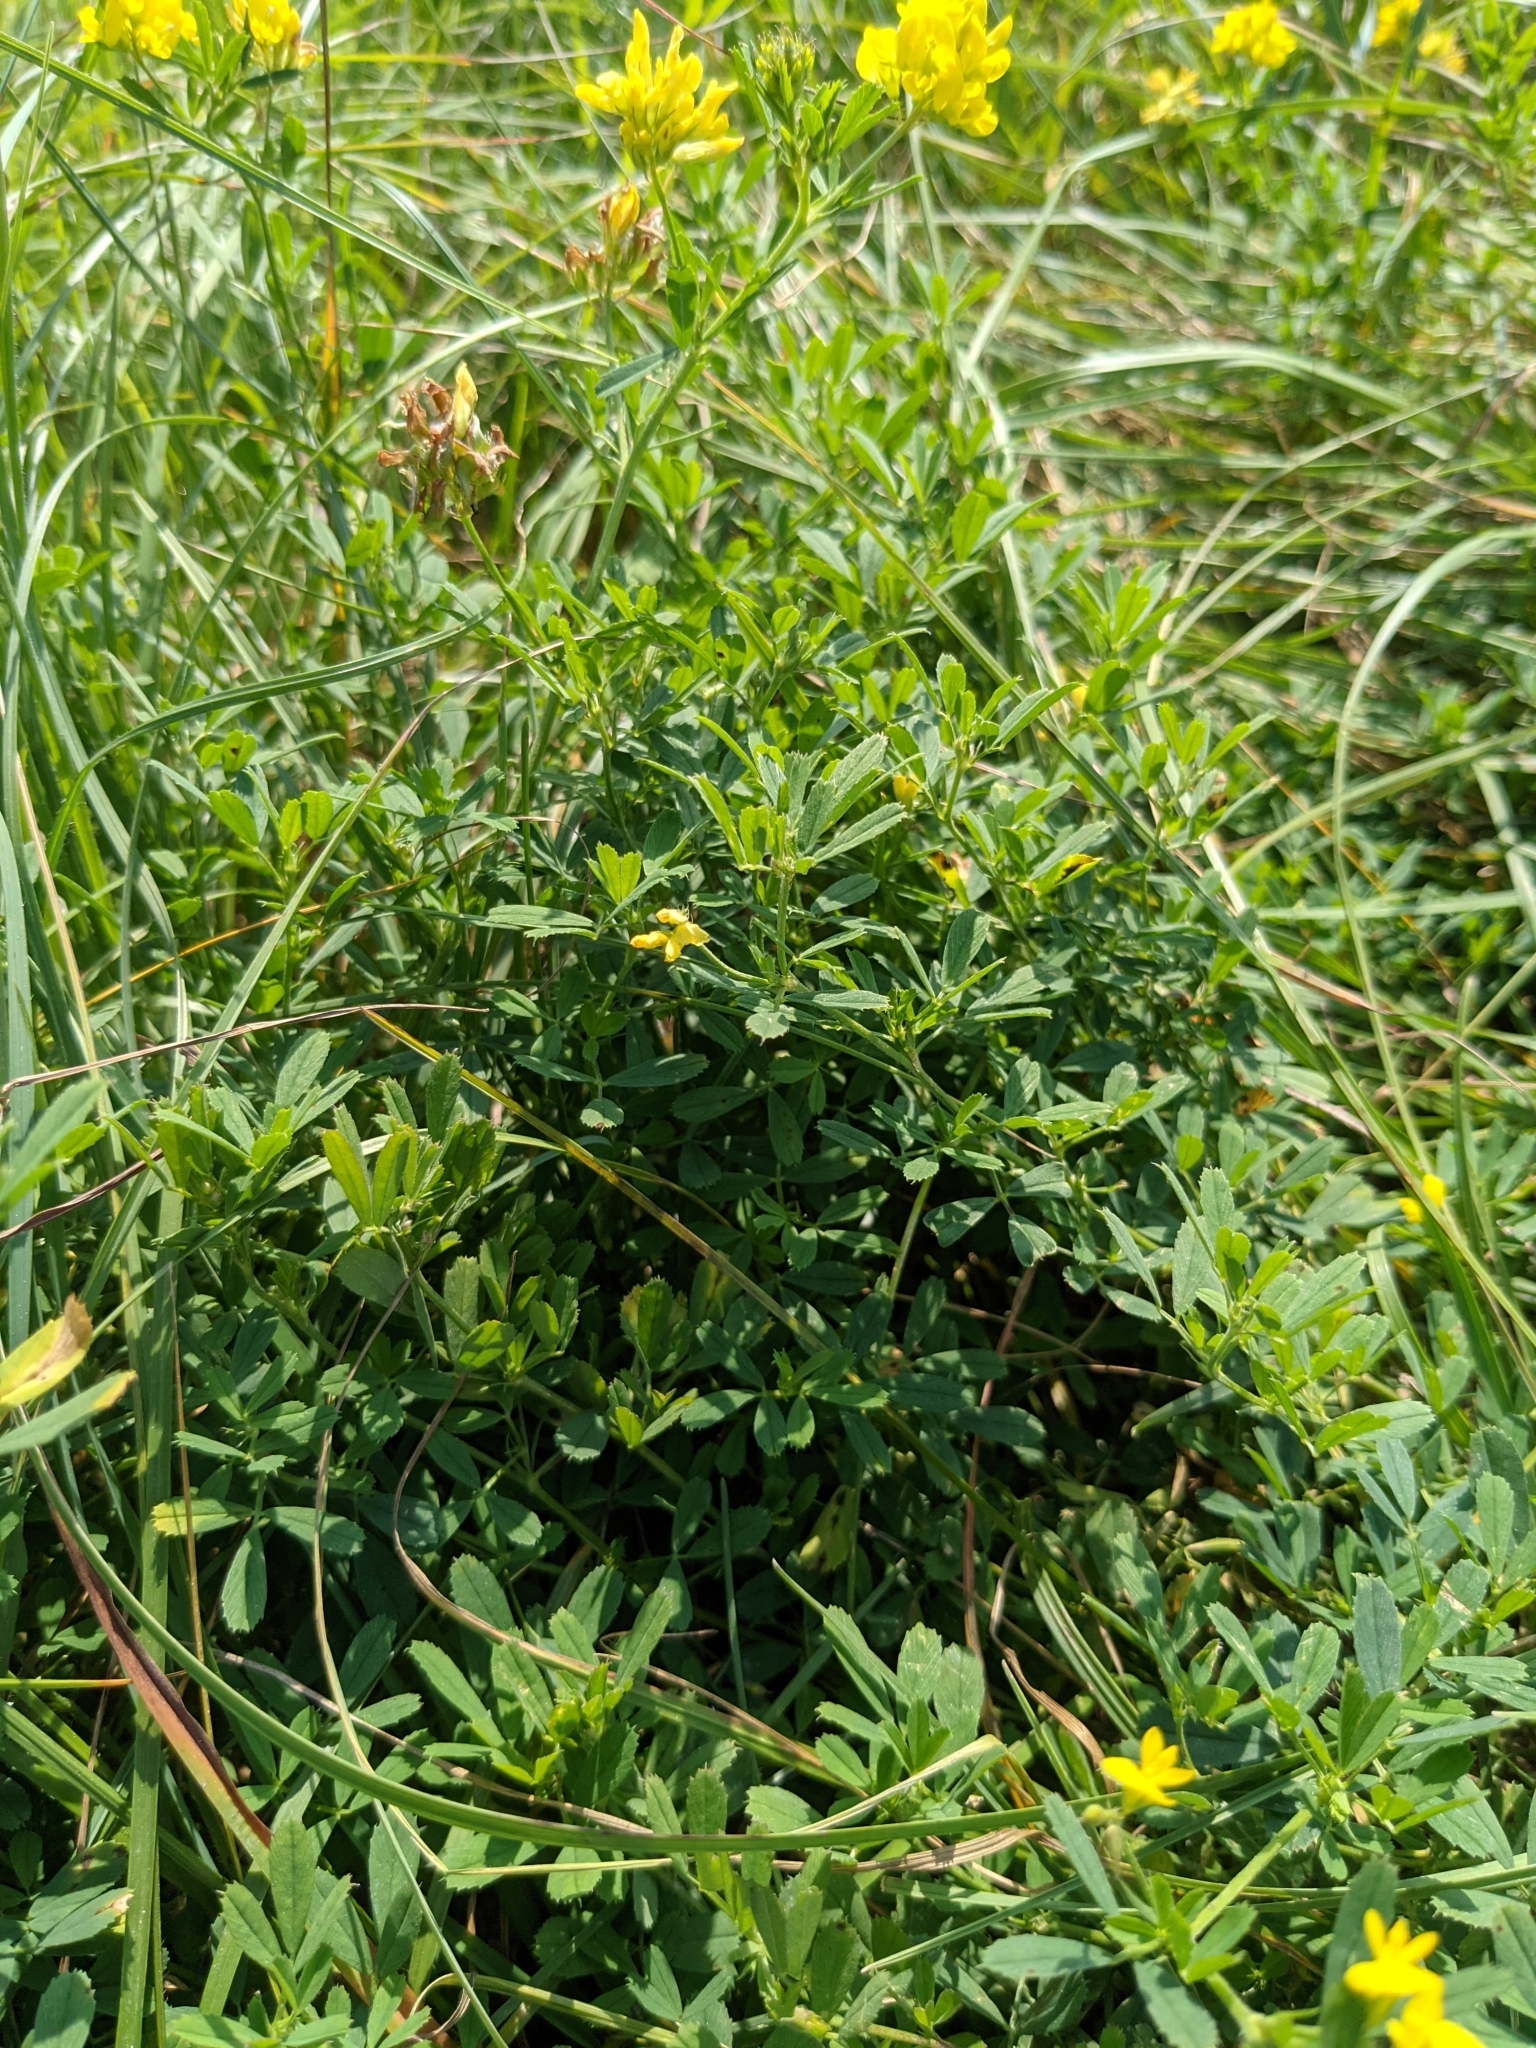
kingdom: Plantae
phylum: Tracheophyta
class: Magnoliopsida
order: Fabales
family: Fabaceae
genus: Medicago
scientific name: Medicago falcata
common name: Sickle medick
